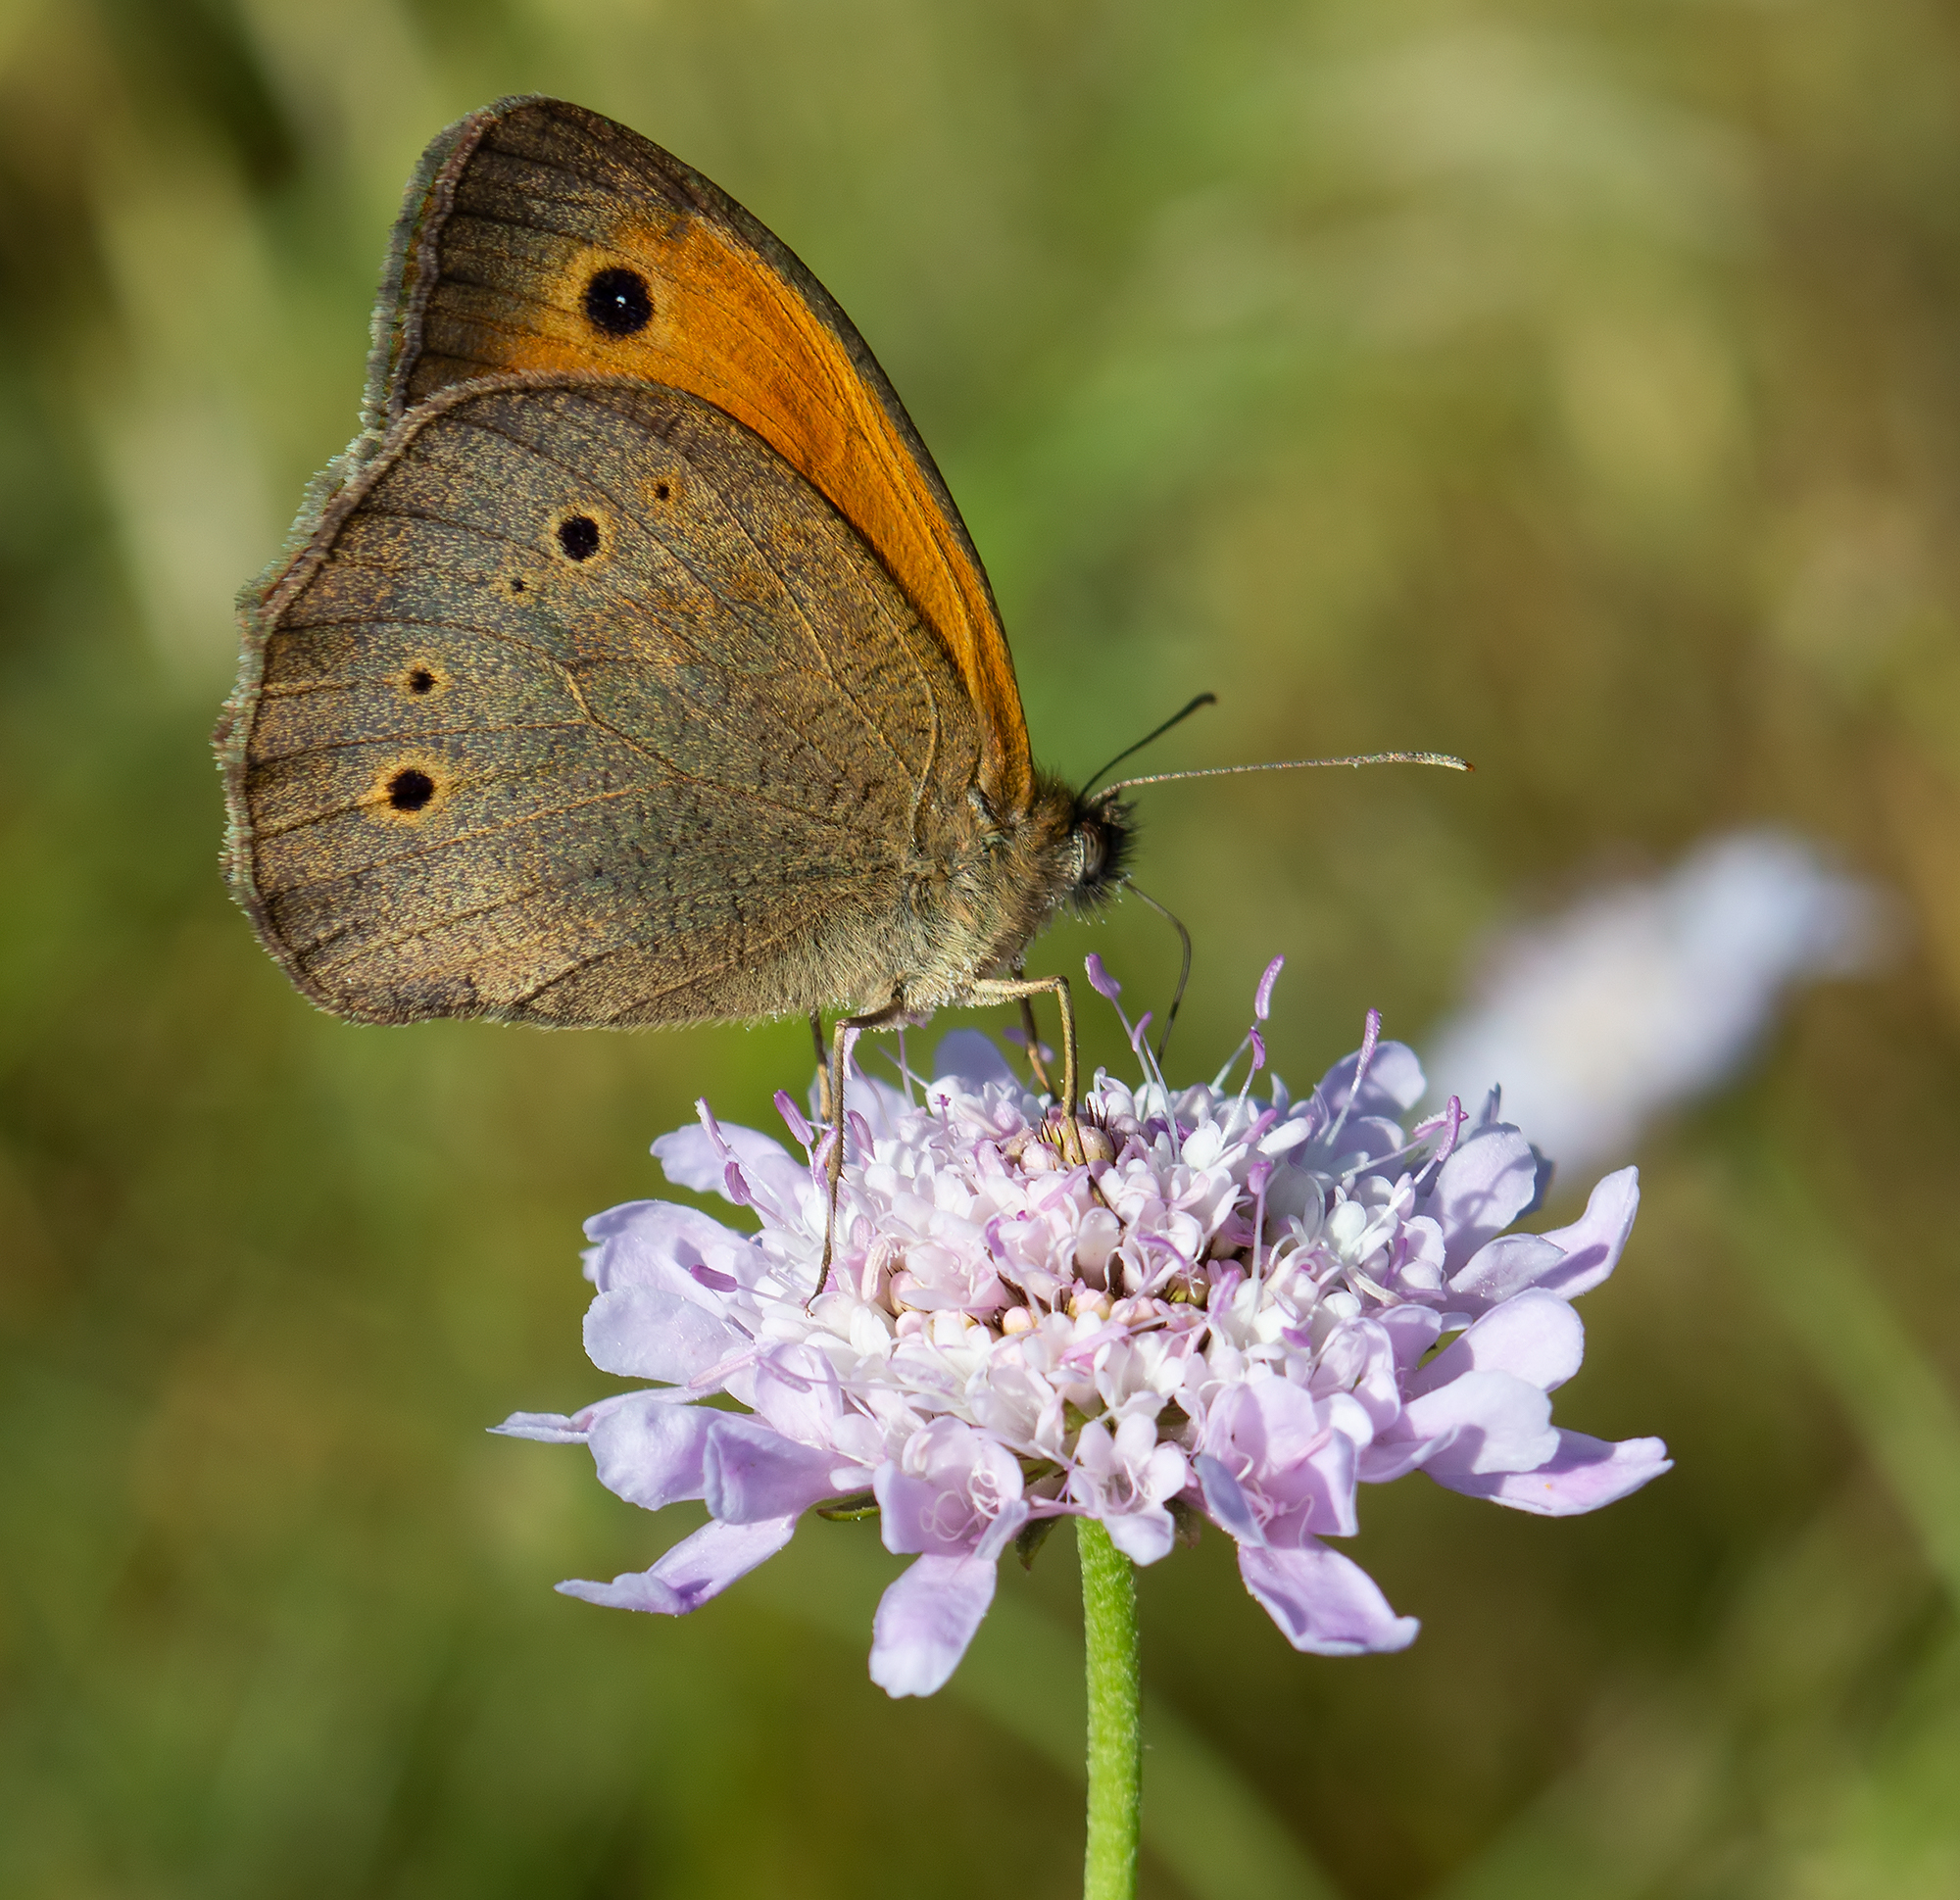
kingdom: Animalia
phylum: Arthropoda
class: Insecta
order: Lepidoptera
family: Nymphalidae
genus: Maniola
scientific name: Maniola jurtina
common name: Meadow brown
